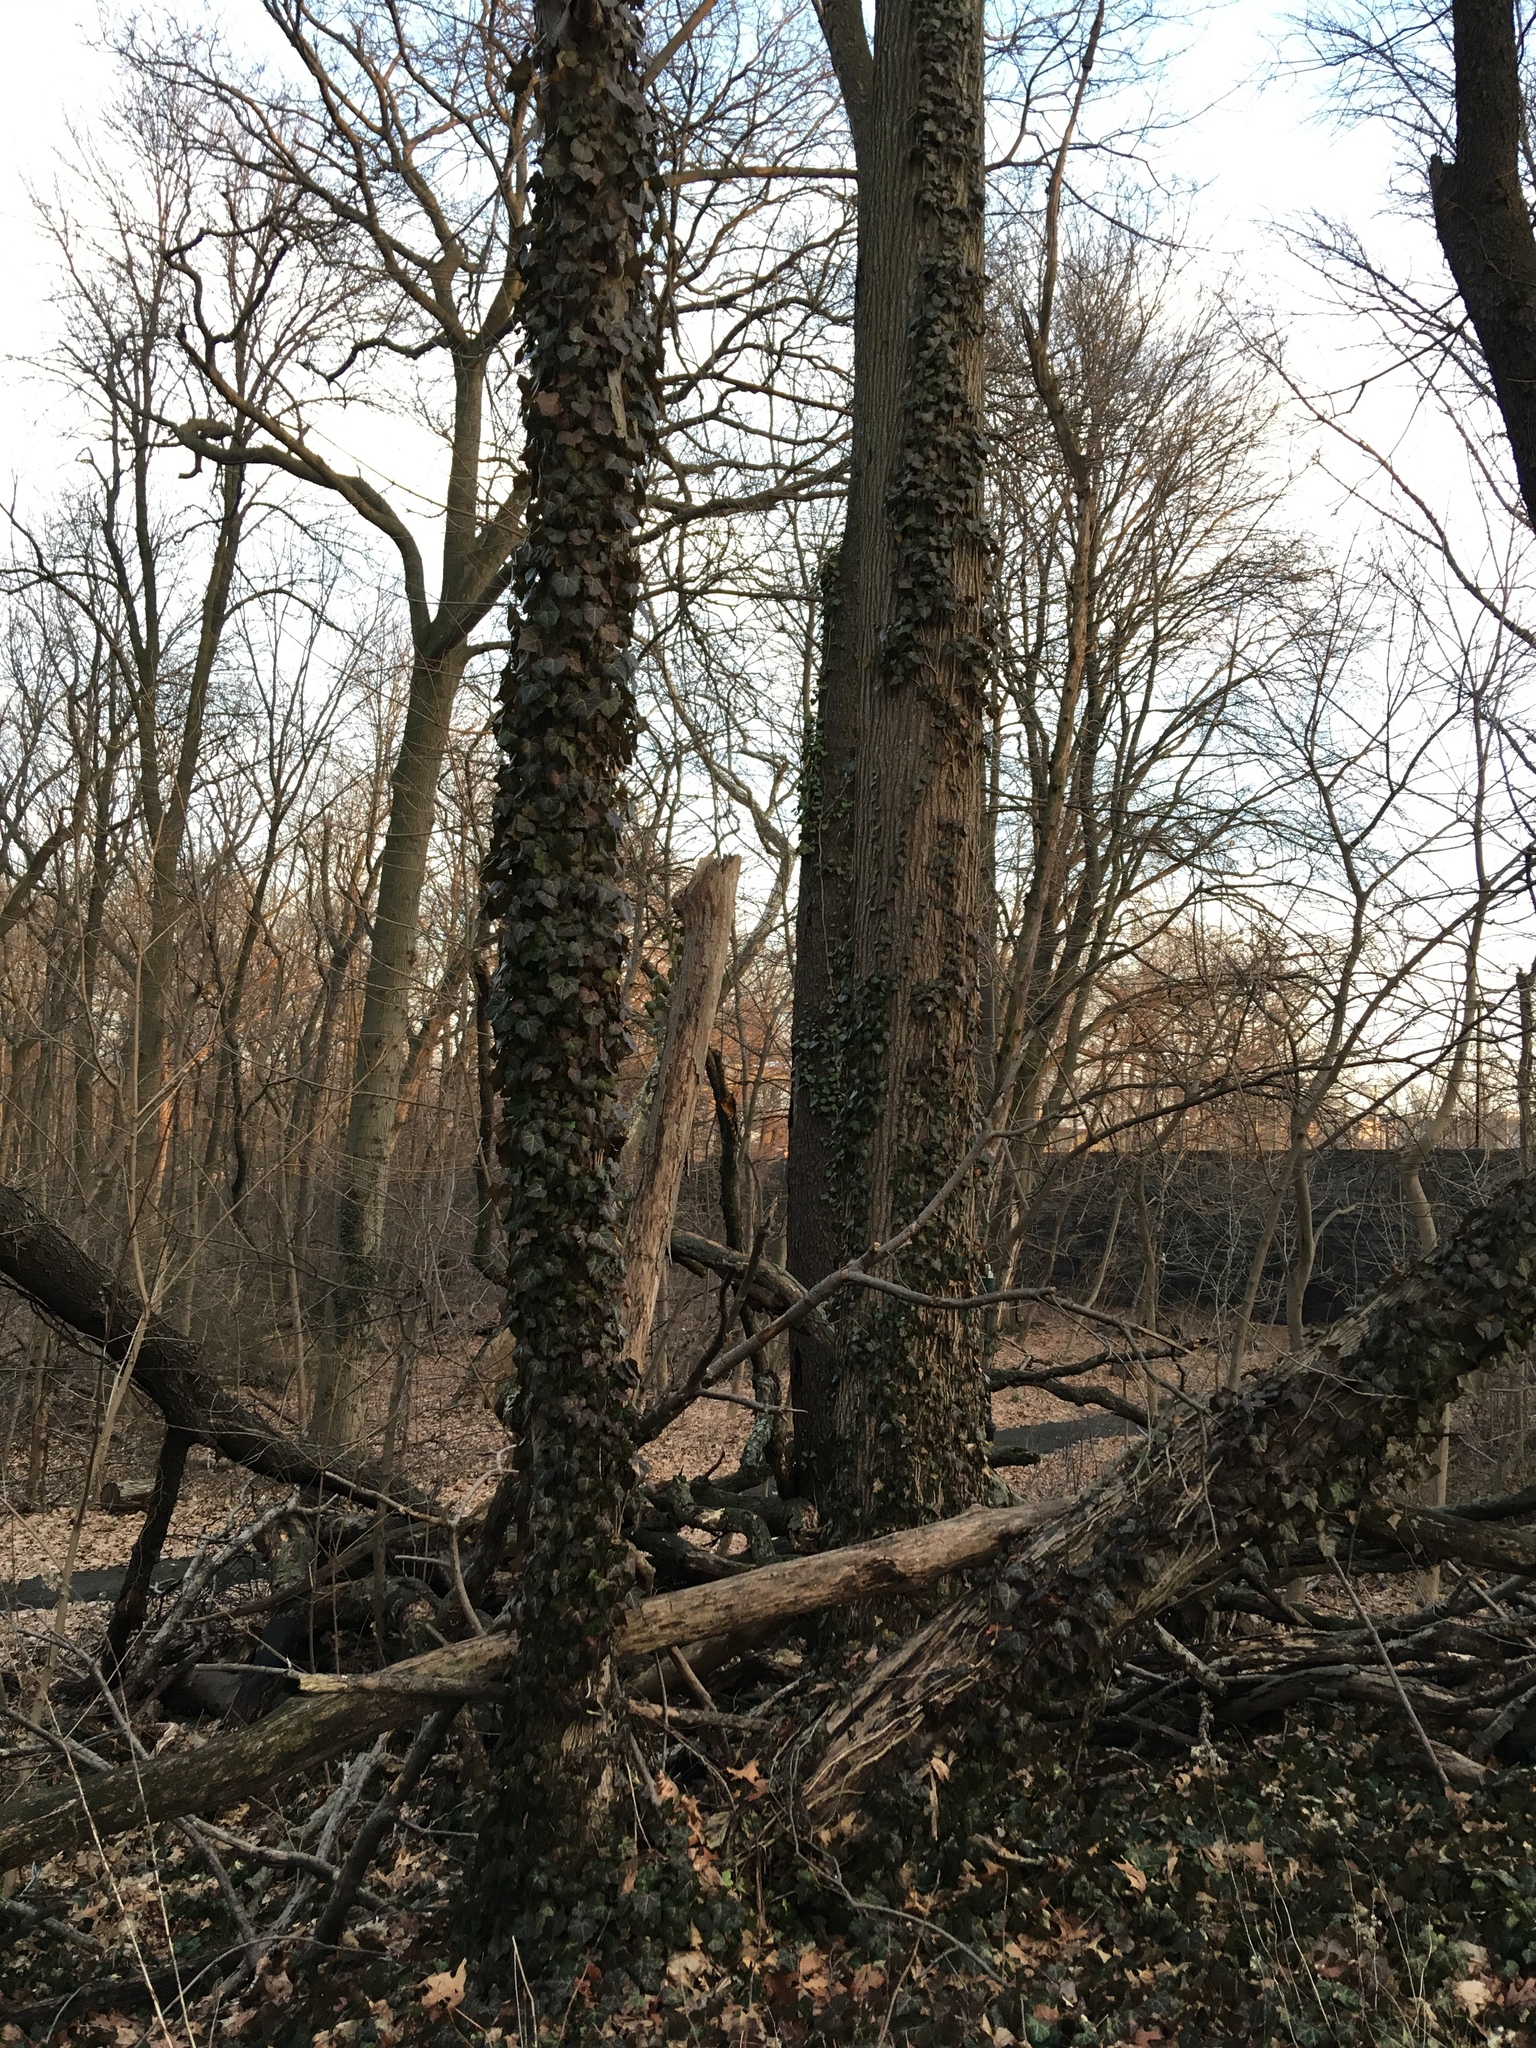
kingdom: Plantae
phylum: Tracheophyta
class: Magnoliopsida
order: Apiales
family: Araliaceae
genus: Hedera
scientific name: Hedera helix
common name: Ivy
